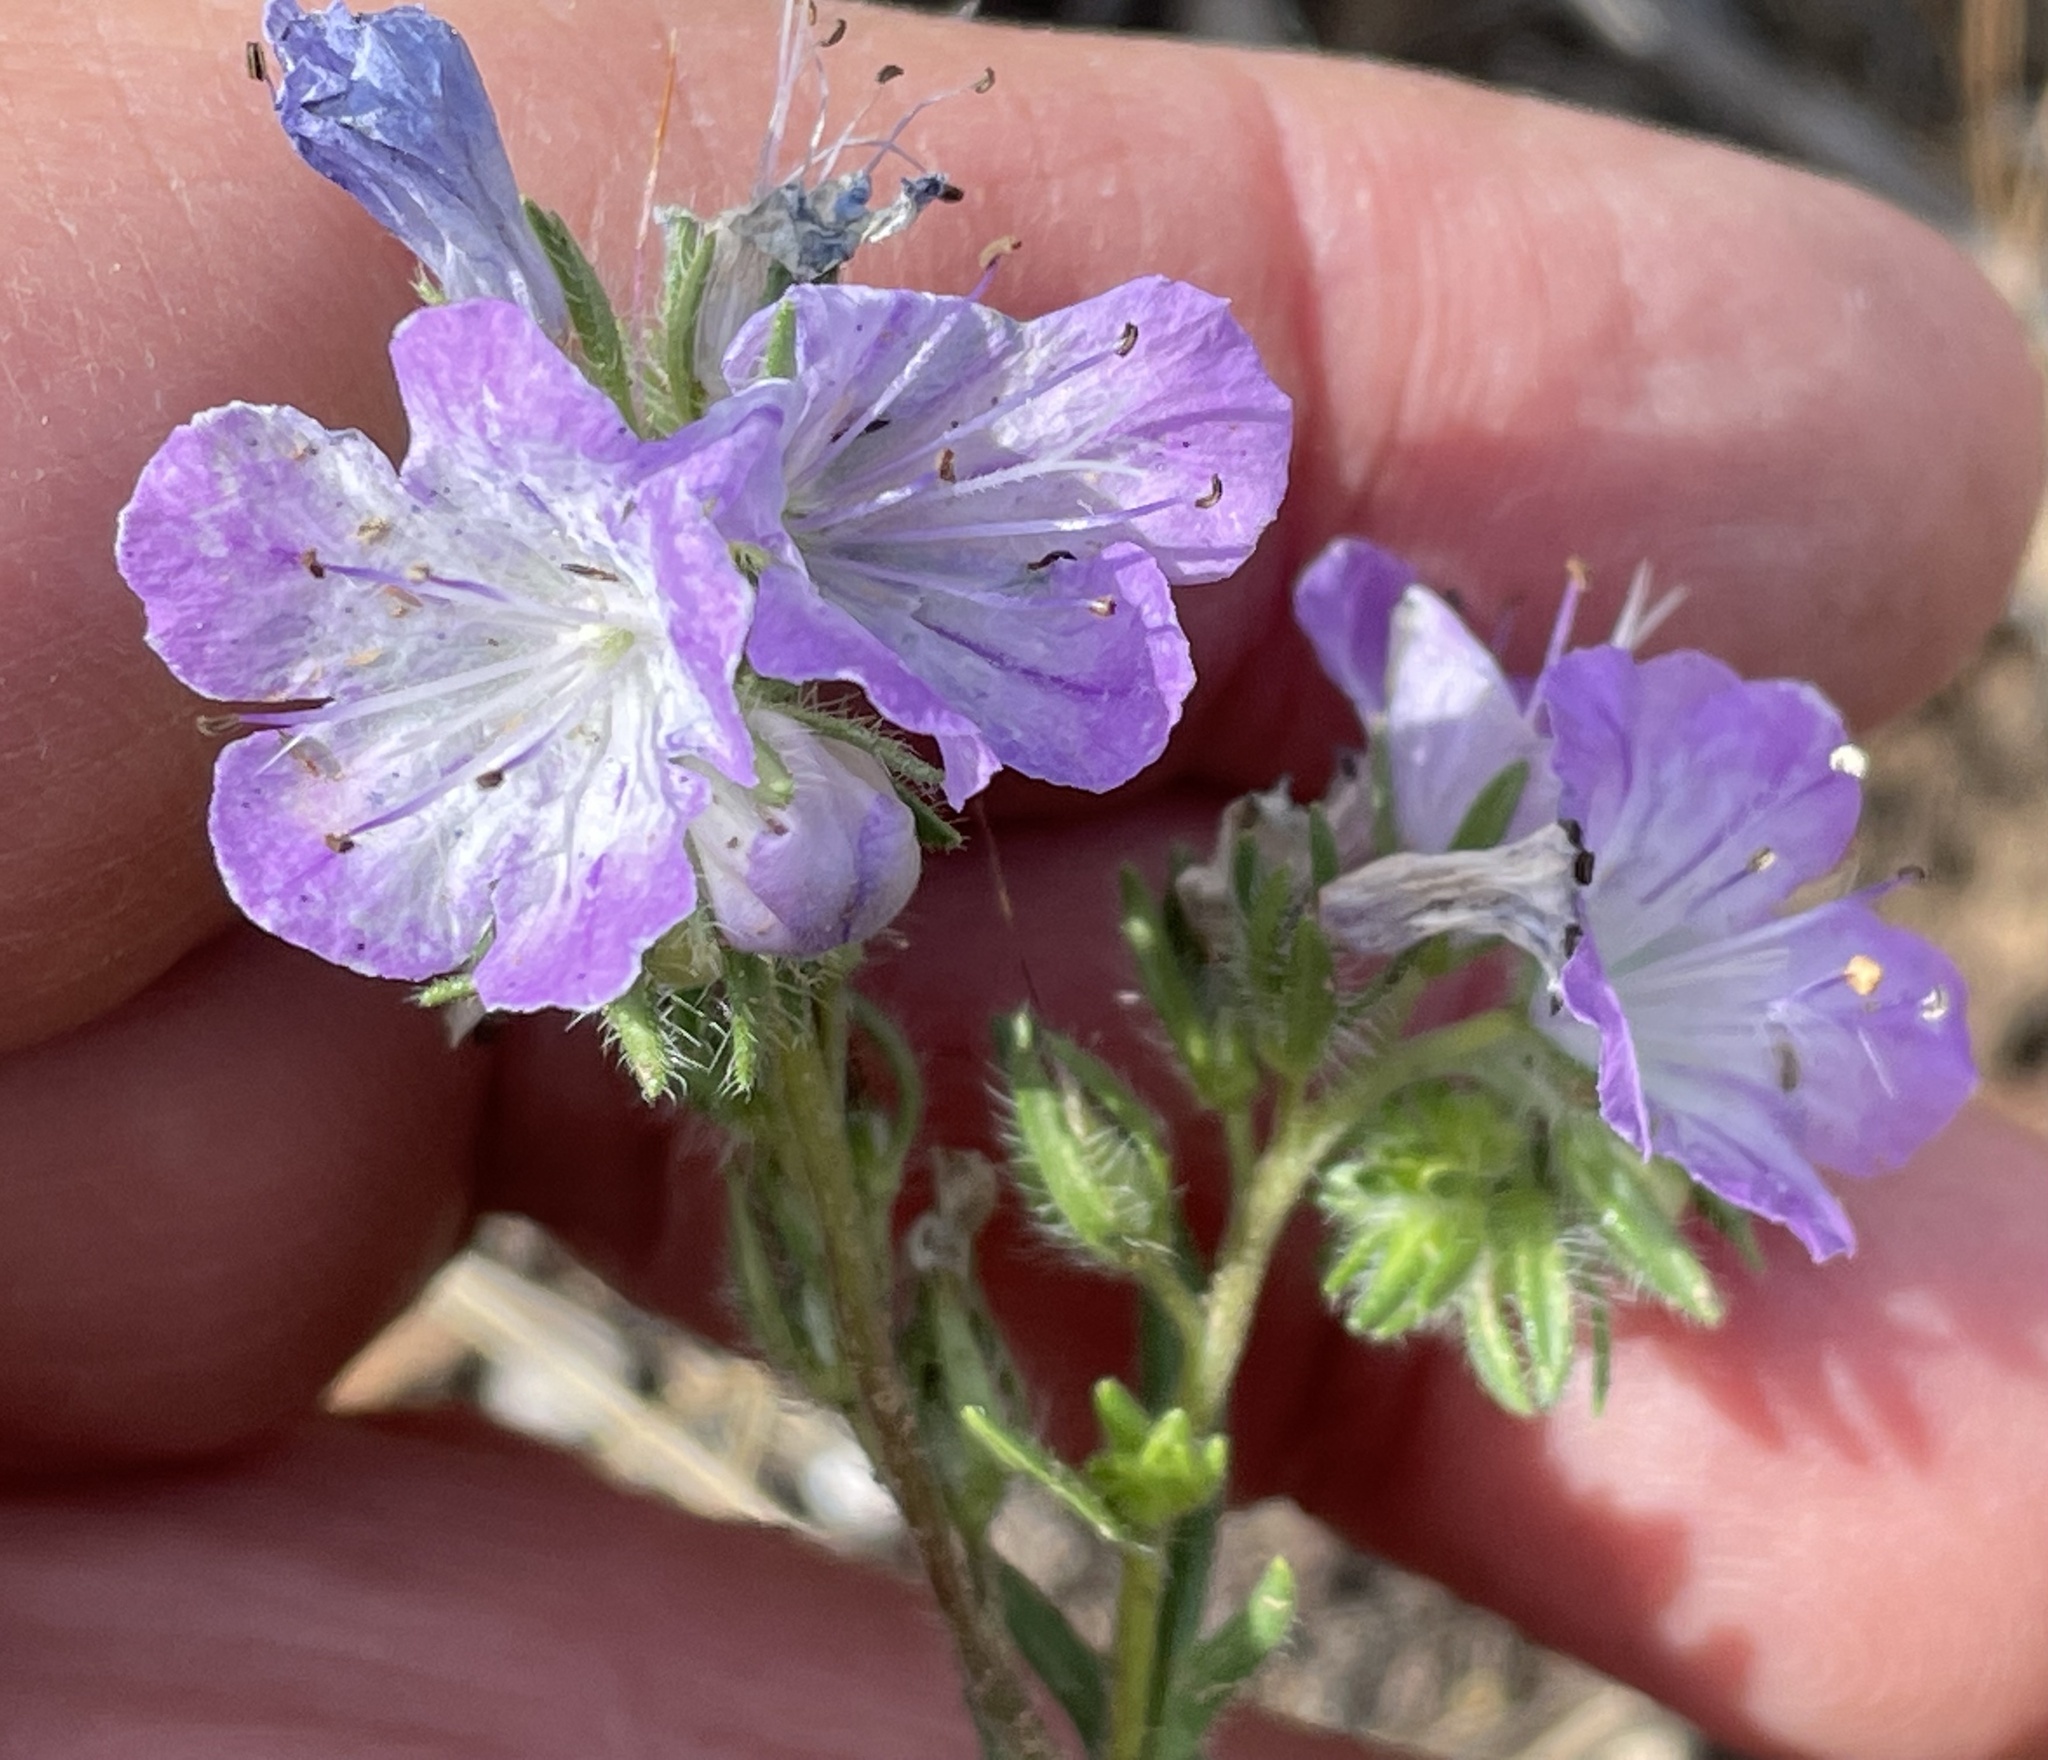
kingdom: Plantae
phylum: Tracheophyta
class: Magnoliopsida
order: Boraginales
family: Hydrophyllaceae
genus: Phacelia
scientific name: Phacelia linearis
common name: Linear-leaved phacelia
